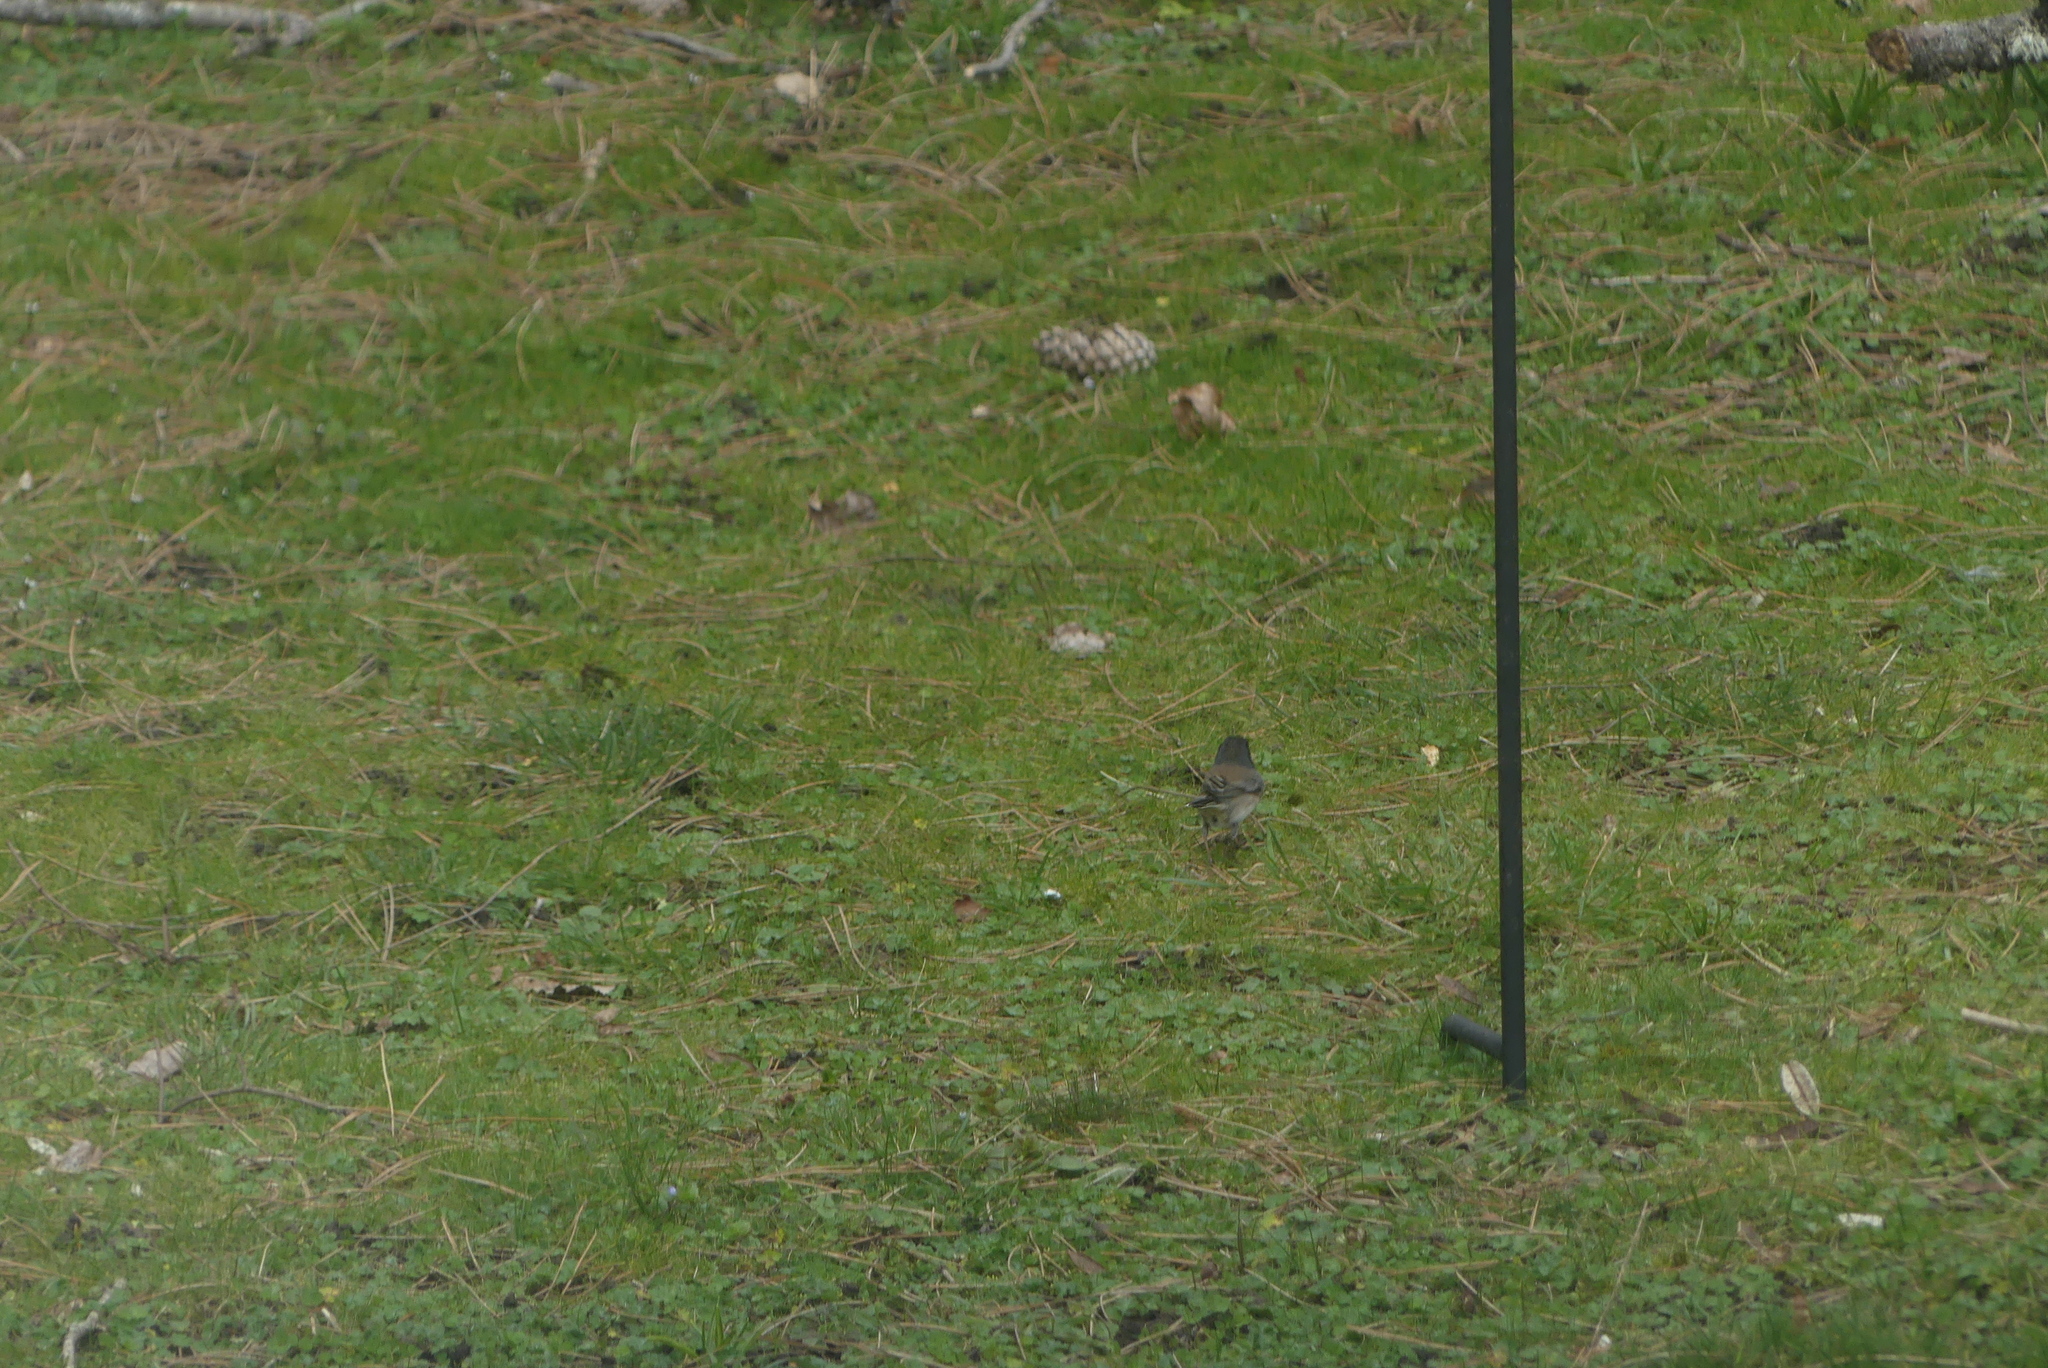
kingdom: Animalia
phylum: Chordata
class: Aves
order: Passeriformes
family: Passerellidae
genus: Junco
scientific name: Junco hyemalis
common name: Dark-eyed junco
